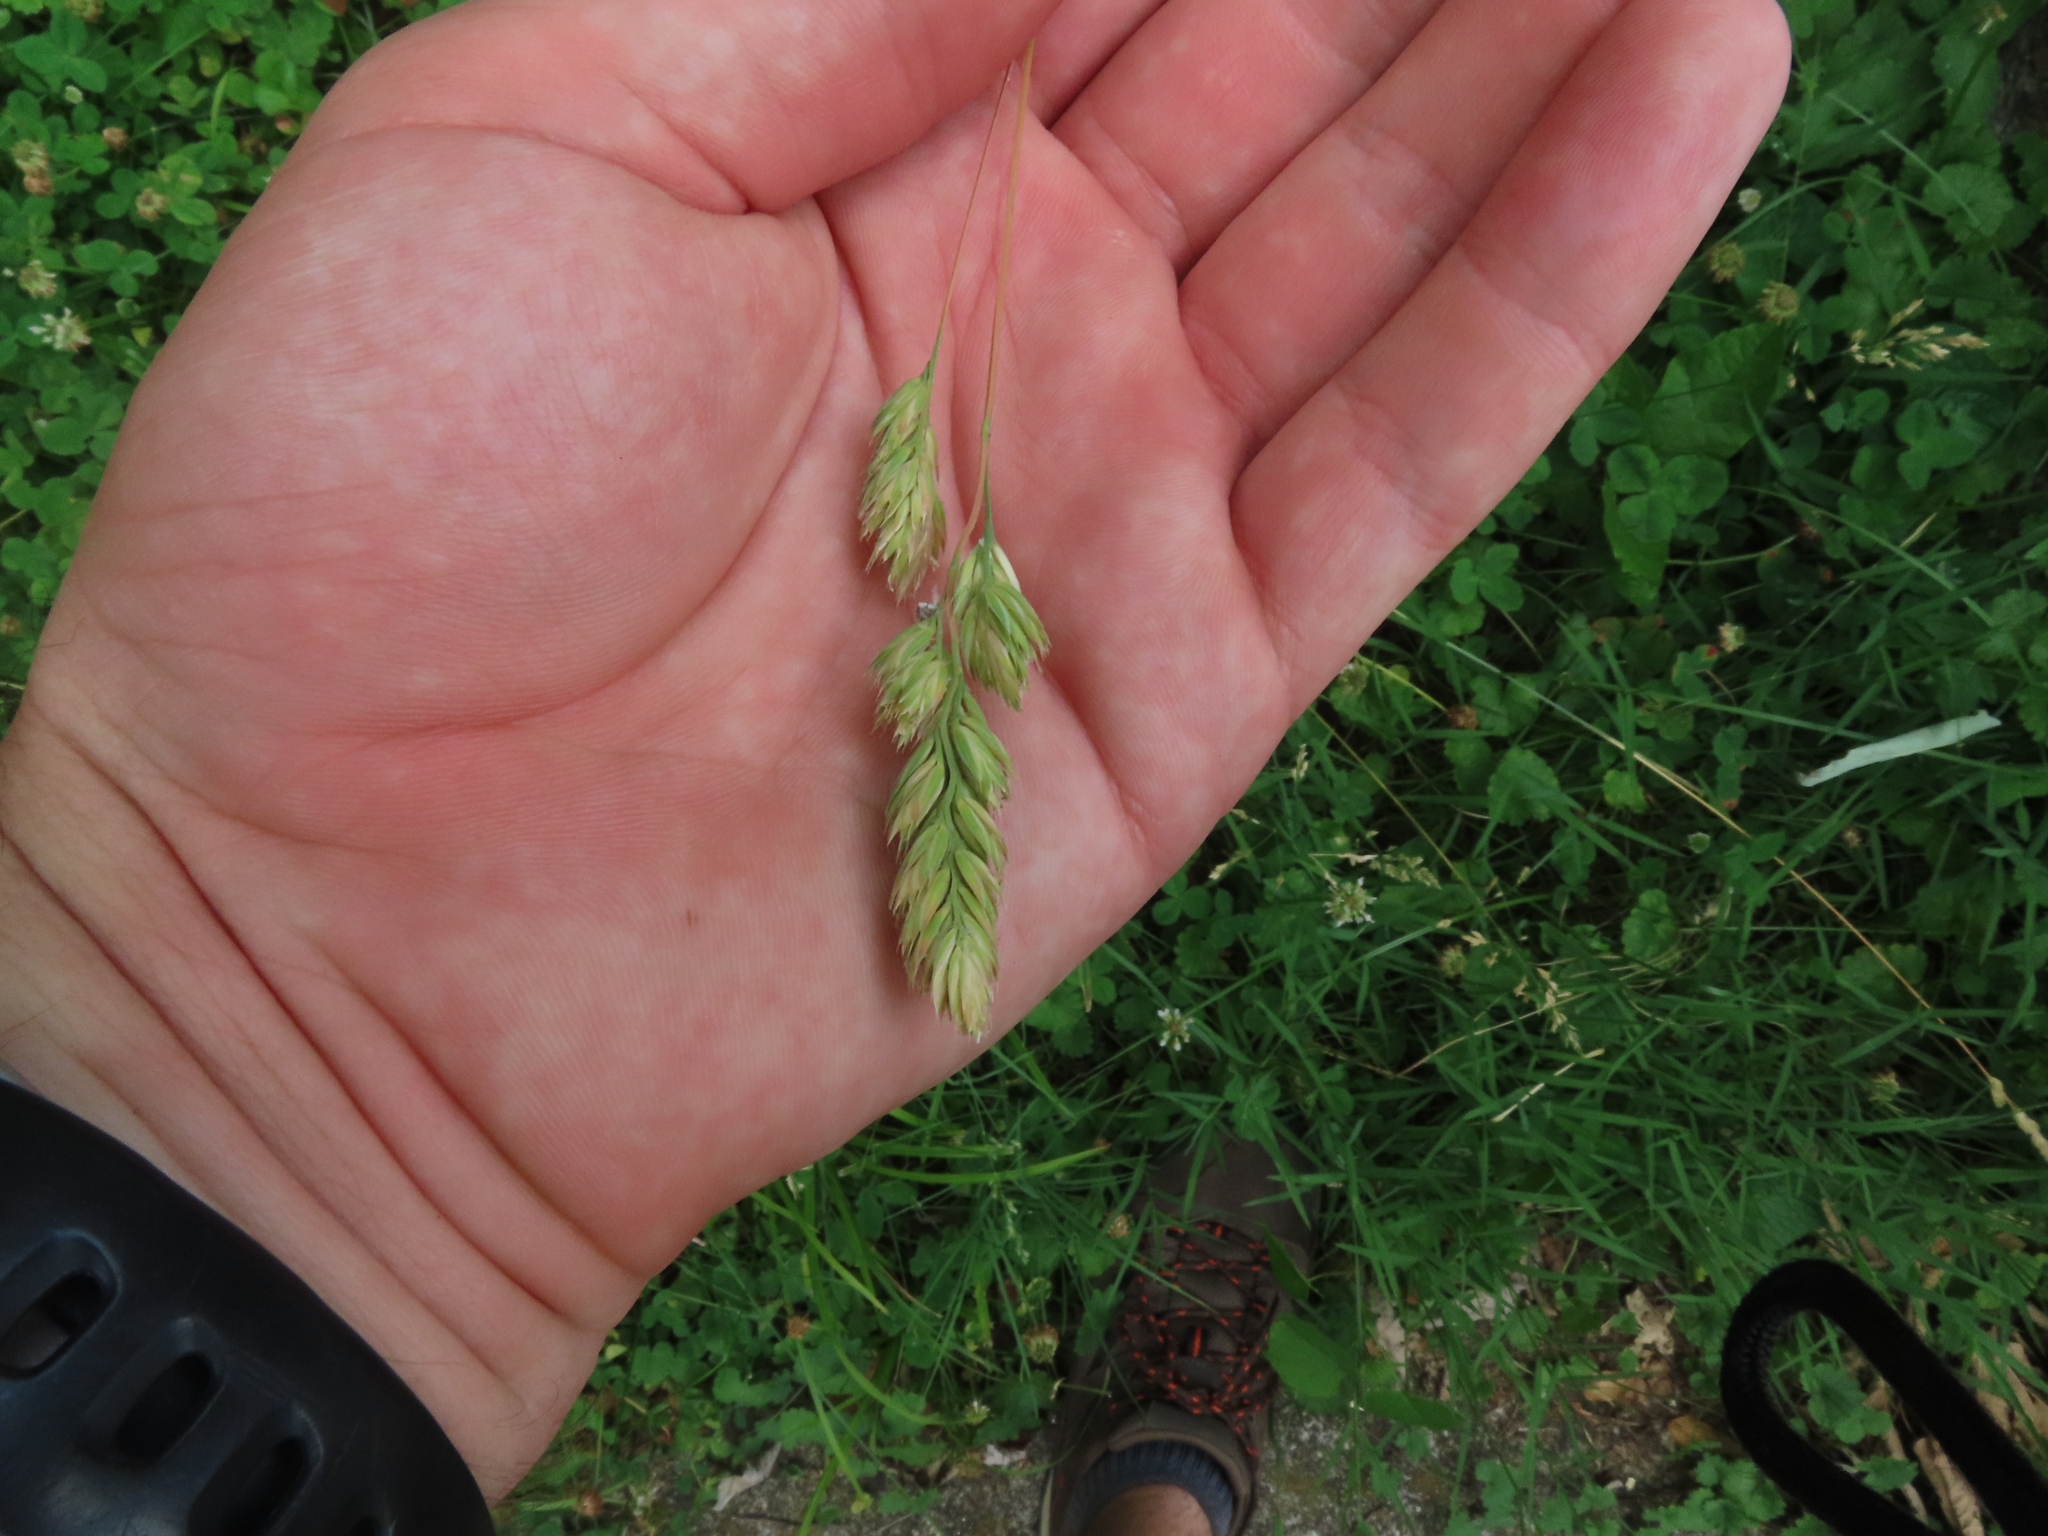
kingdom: Plantae
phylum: Tracheophyta
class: Liliopsida
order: Poales
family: Poaceae
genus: Dactylis
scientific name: Dactylis glomerata
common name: Orchardgrass
